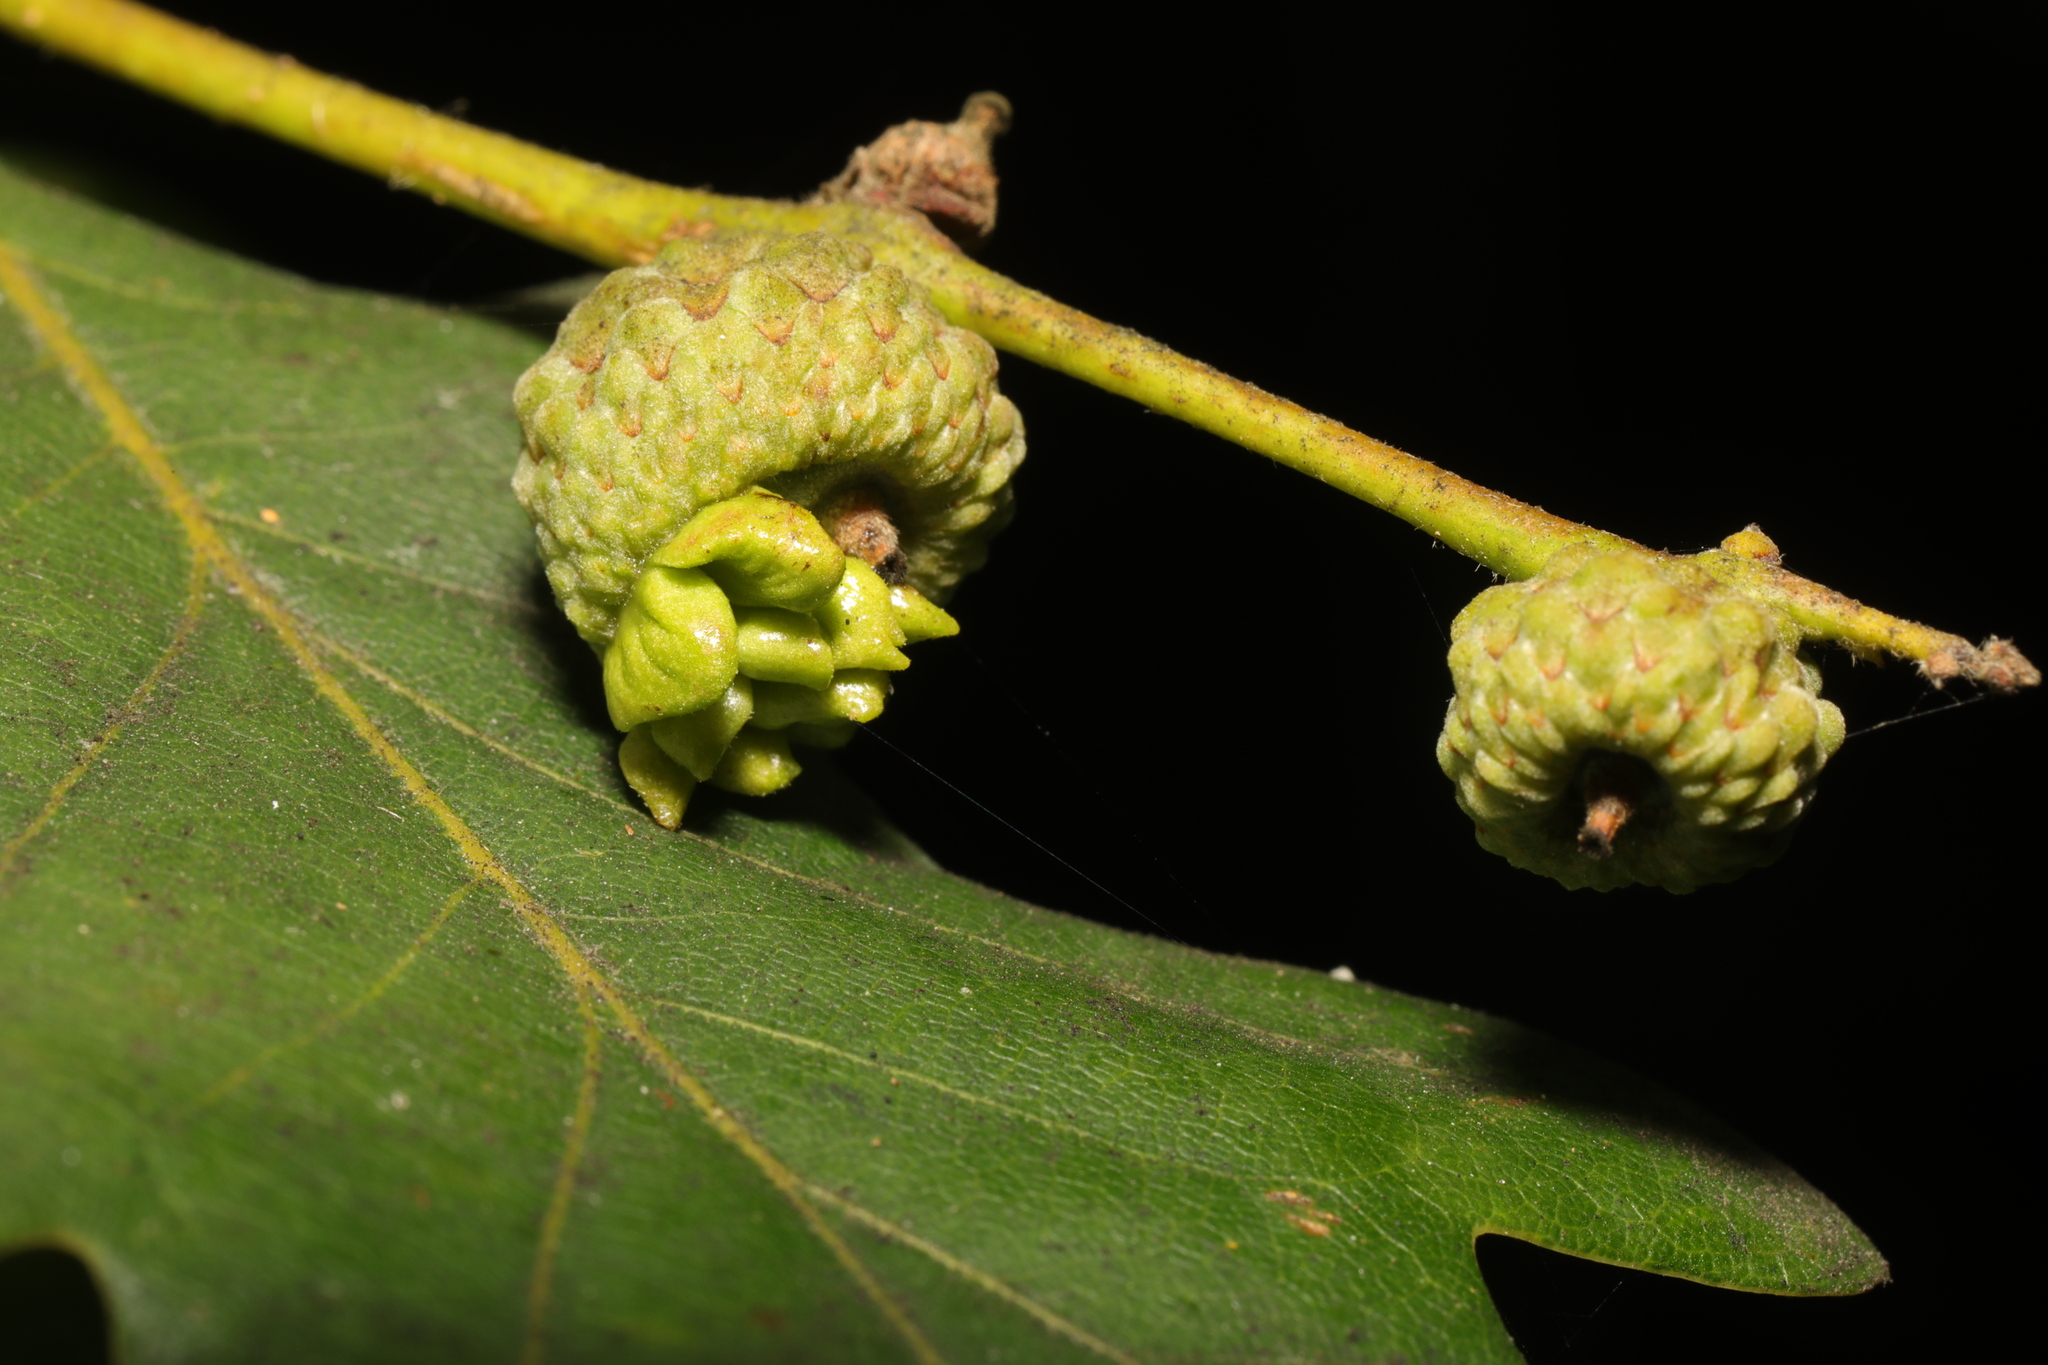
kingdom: Animalia
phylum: Arthropoda
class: Insecta
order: Hymenoptera
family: Cynipidae
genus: Andricus
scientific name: Andricus quercuscalicis
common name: Knopper gall
